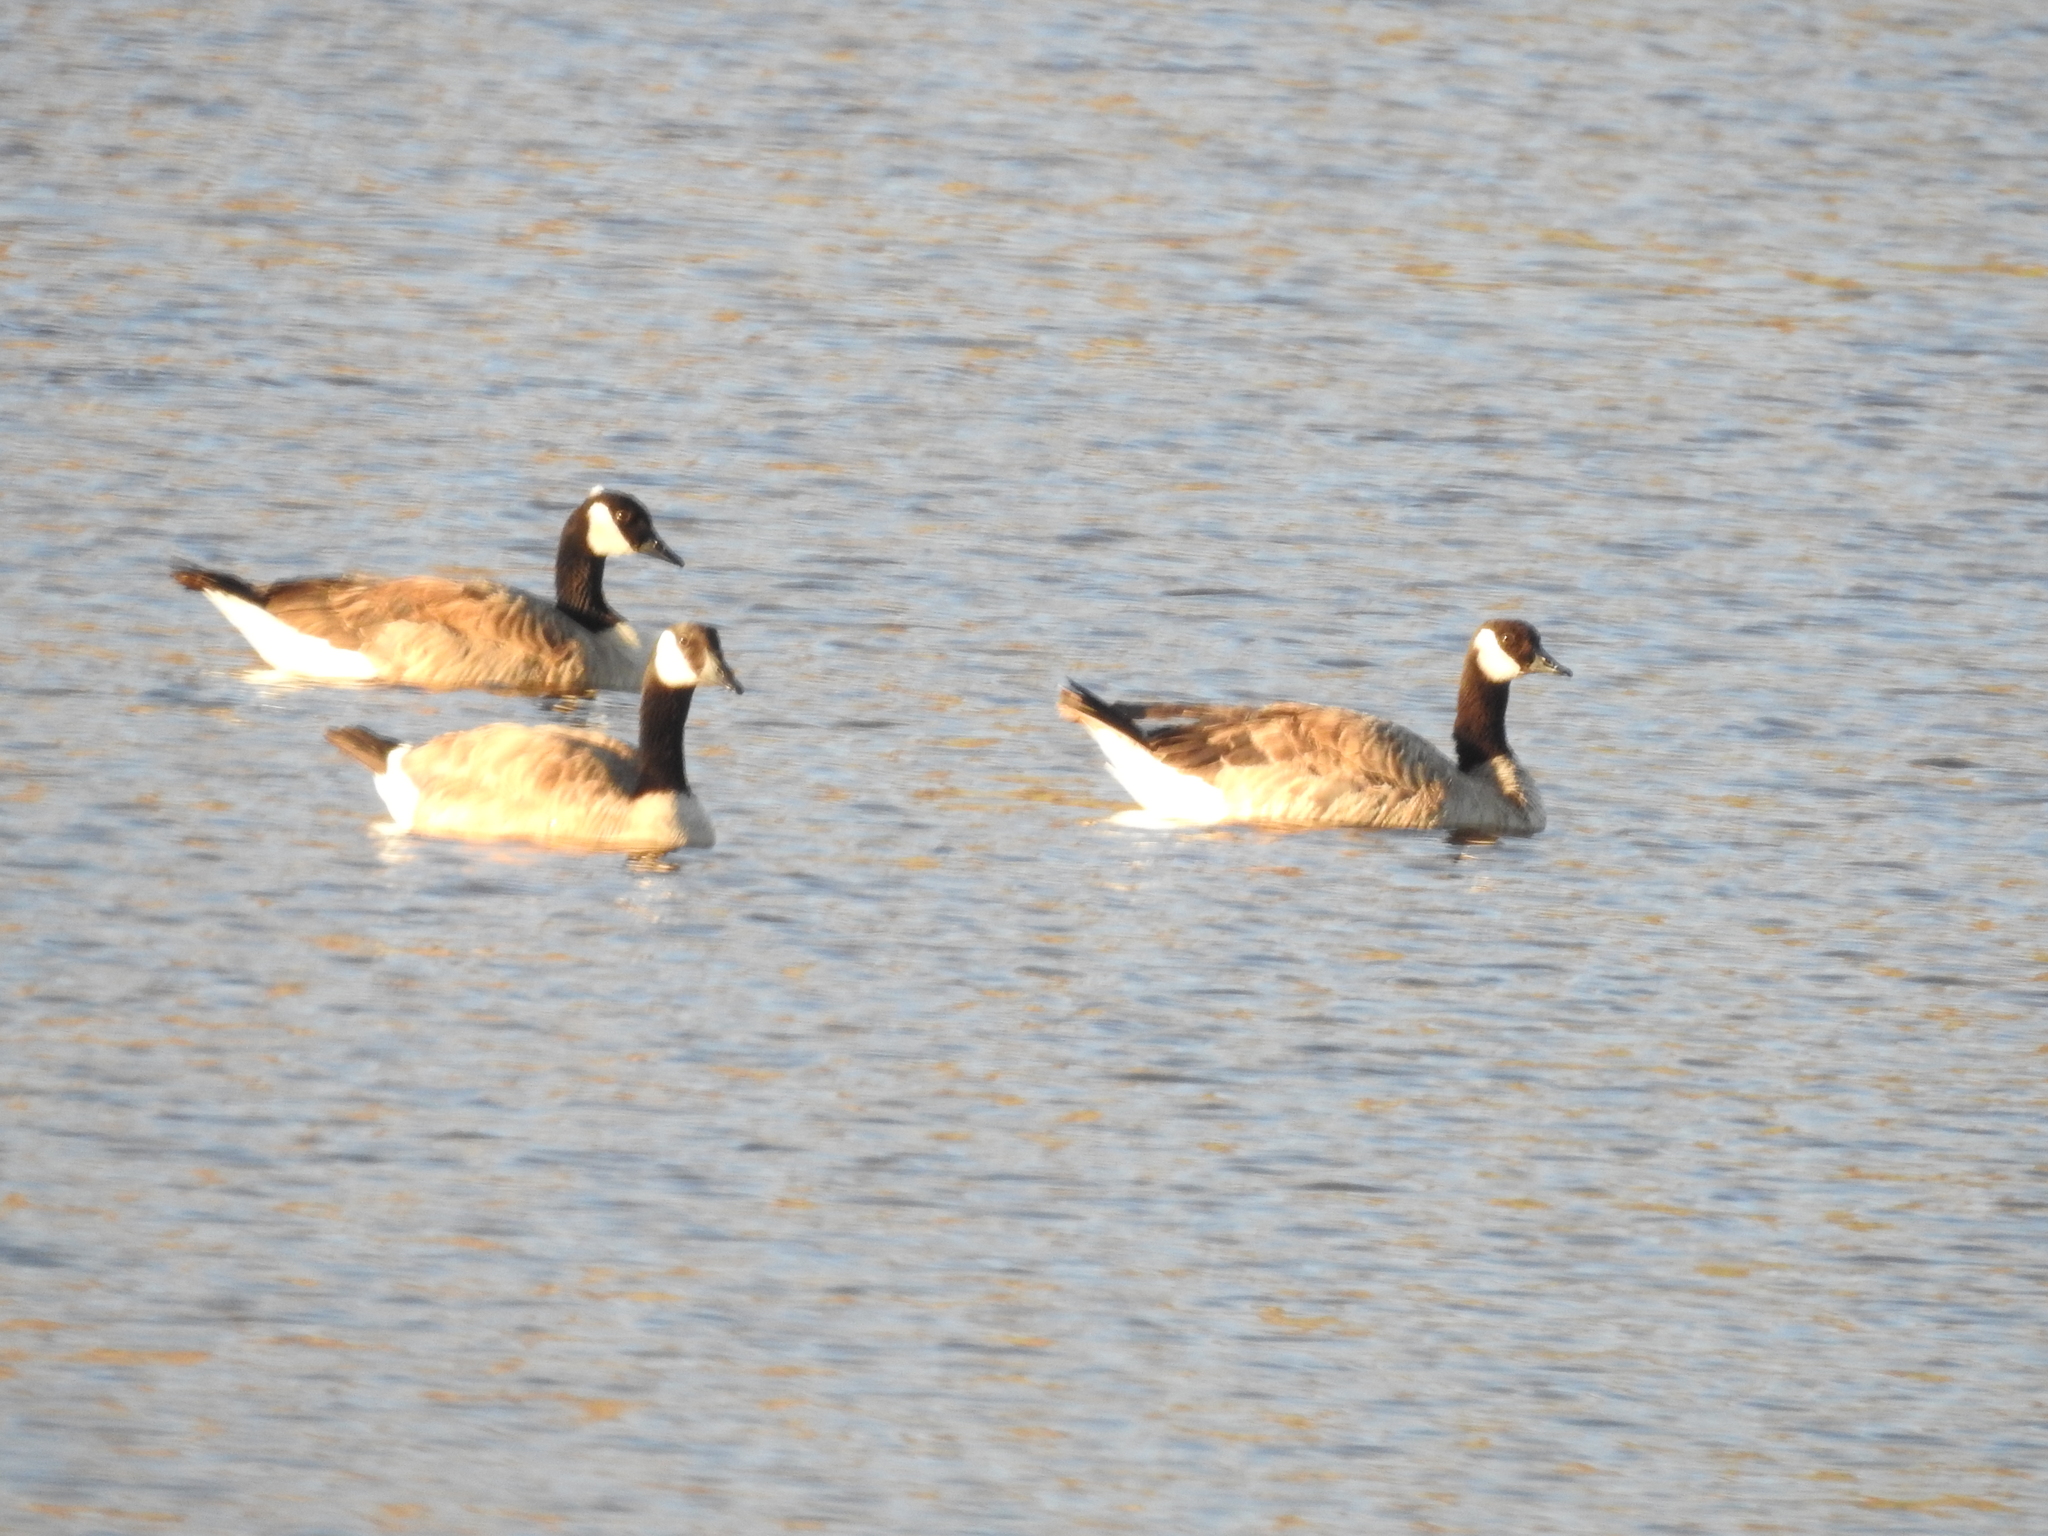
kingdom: Animalia
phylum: Chordata
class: Aves
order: Anseriformes
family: Anatidae
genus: Branta
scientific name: Branta canadensis
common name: Canada goose
